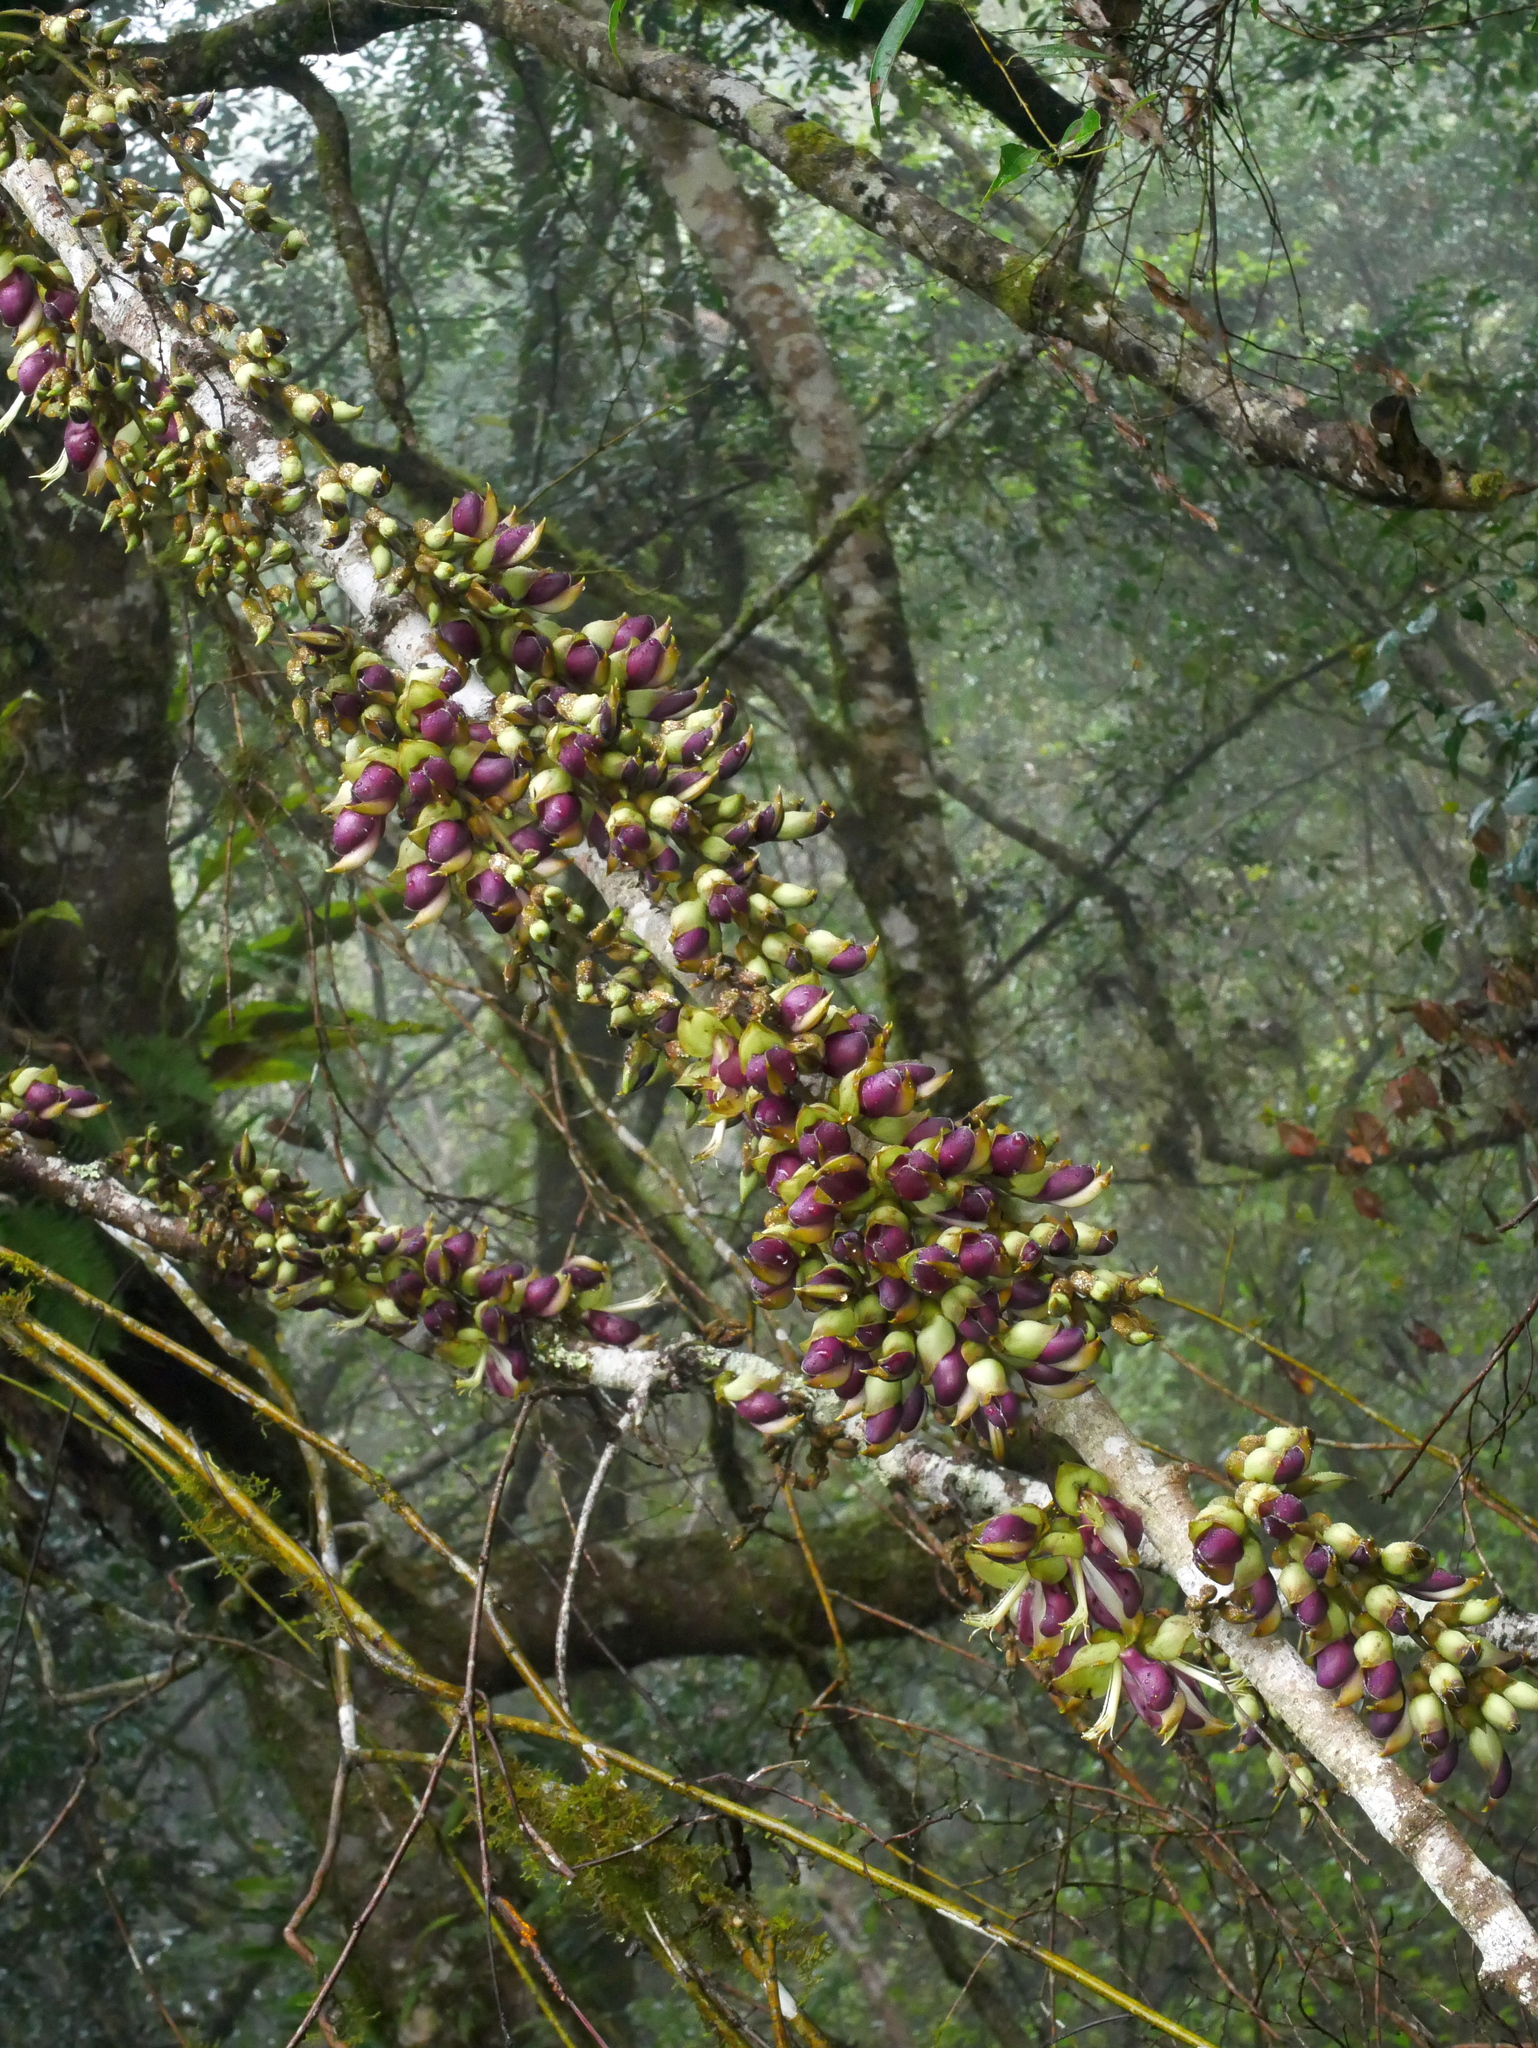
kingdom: Plantae
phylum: Tracheophyta
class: Magnoliopsida
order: Fabales
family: Fabaceae
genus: Mucuna
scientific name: Mucuna macrocarpa
